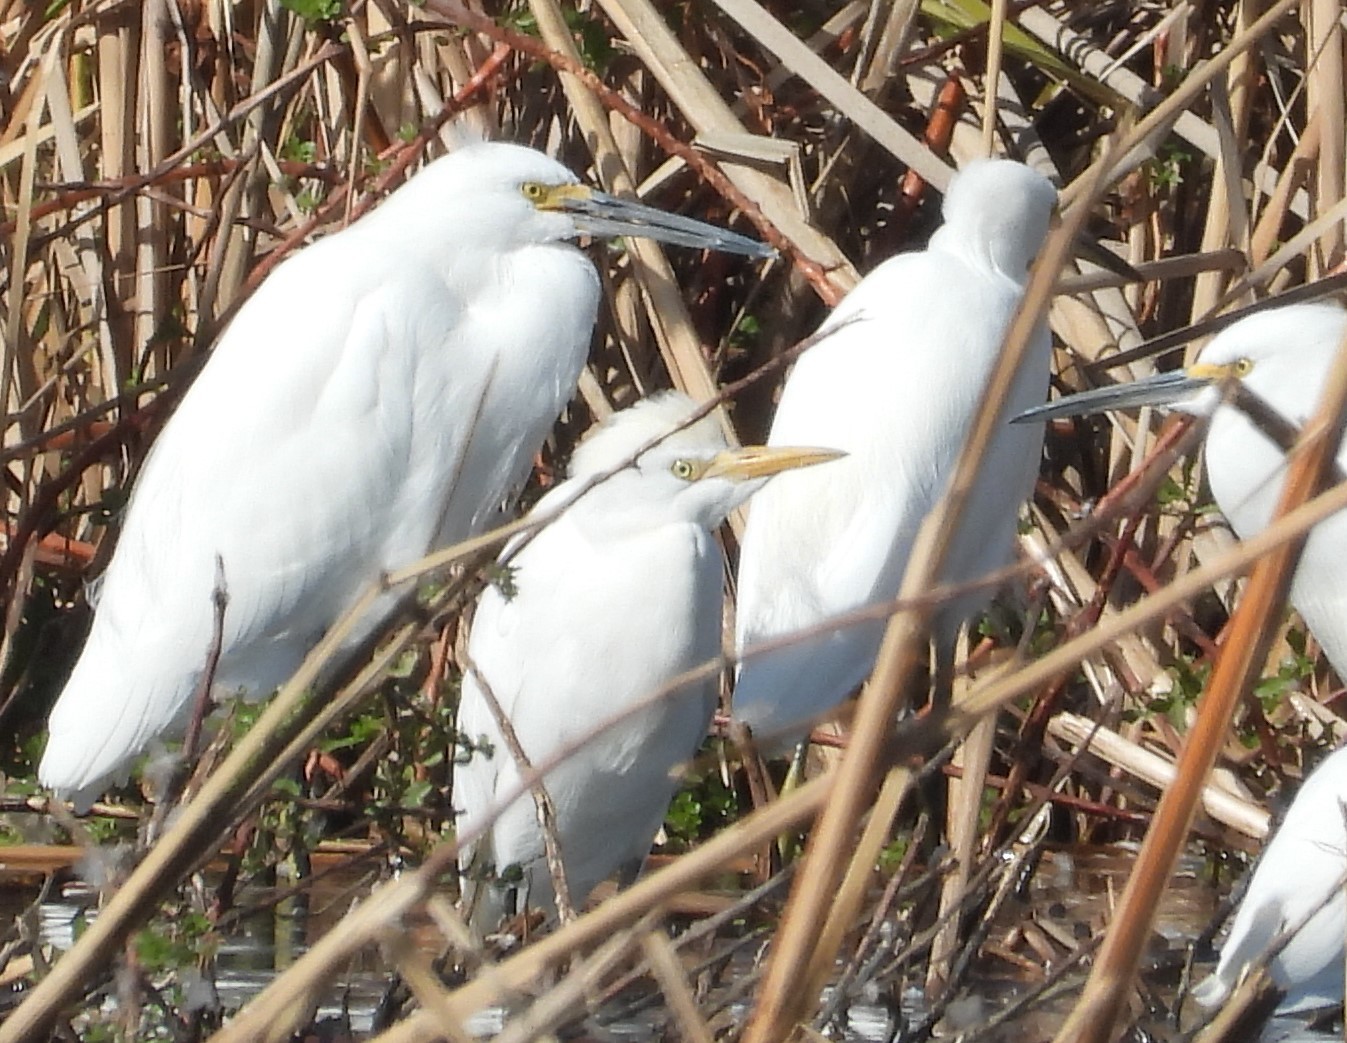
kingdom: Animalia
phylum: Chordata
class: Aves
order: Pelecaniformes
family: Ardeidae
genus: Bubulcus
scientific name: Bubulcus ibis
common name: Cattle egret
